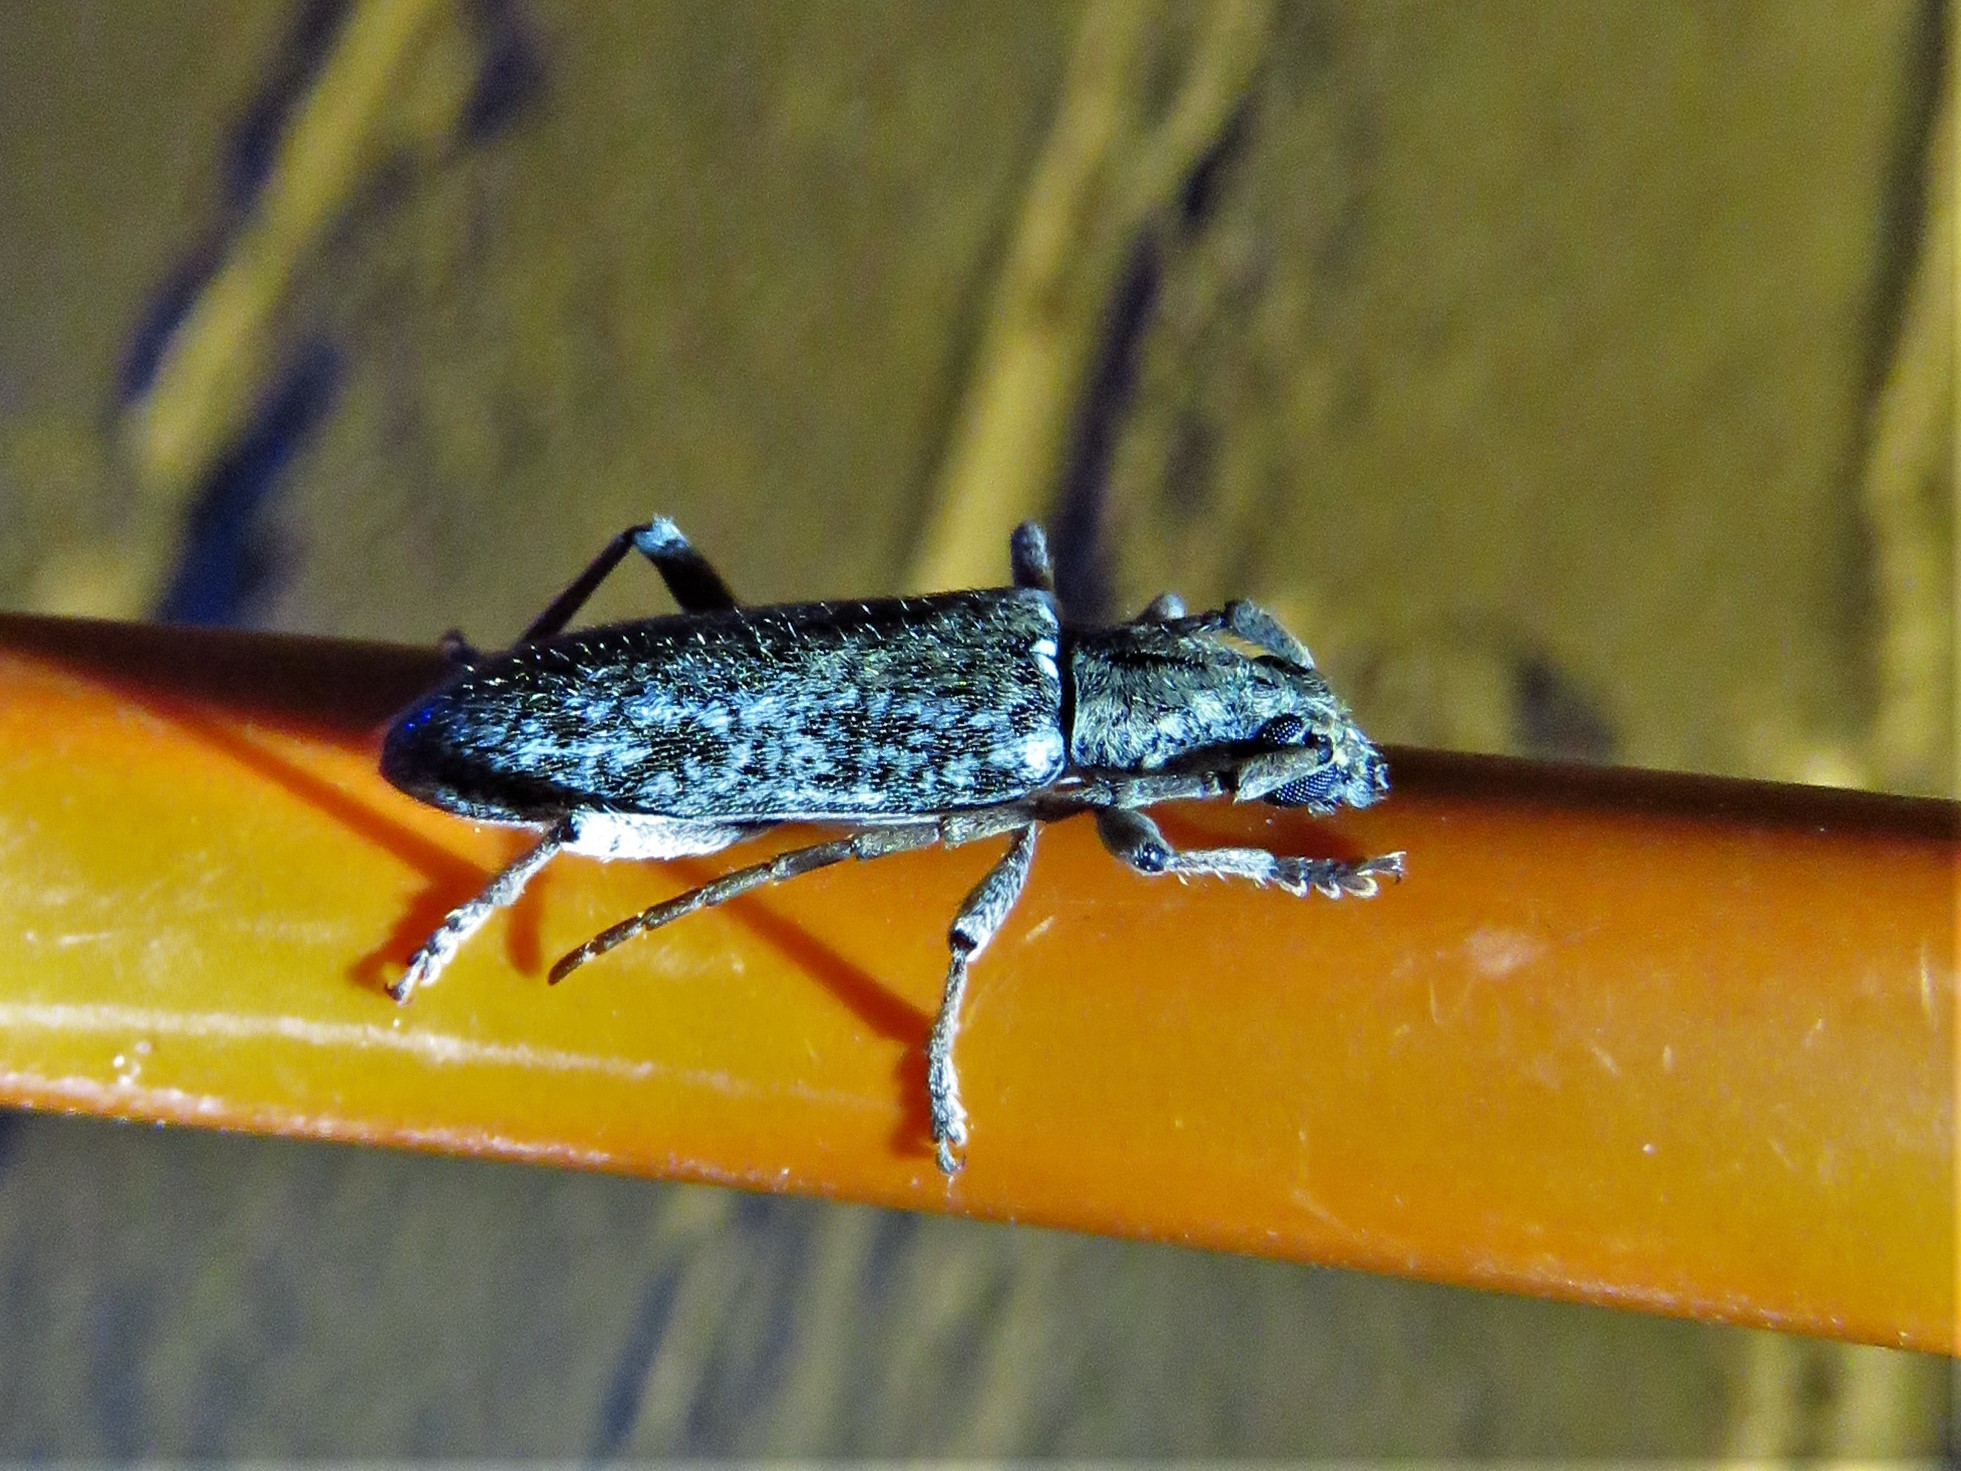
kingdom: Animalia
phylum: Arthropoda
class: Insecta
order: Coleoptera
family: Cerambycidae
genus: Anelaphus
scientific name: Anelaphus debilis
